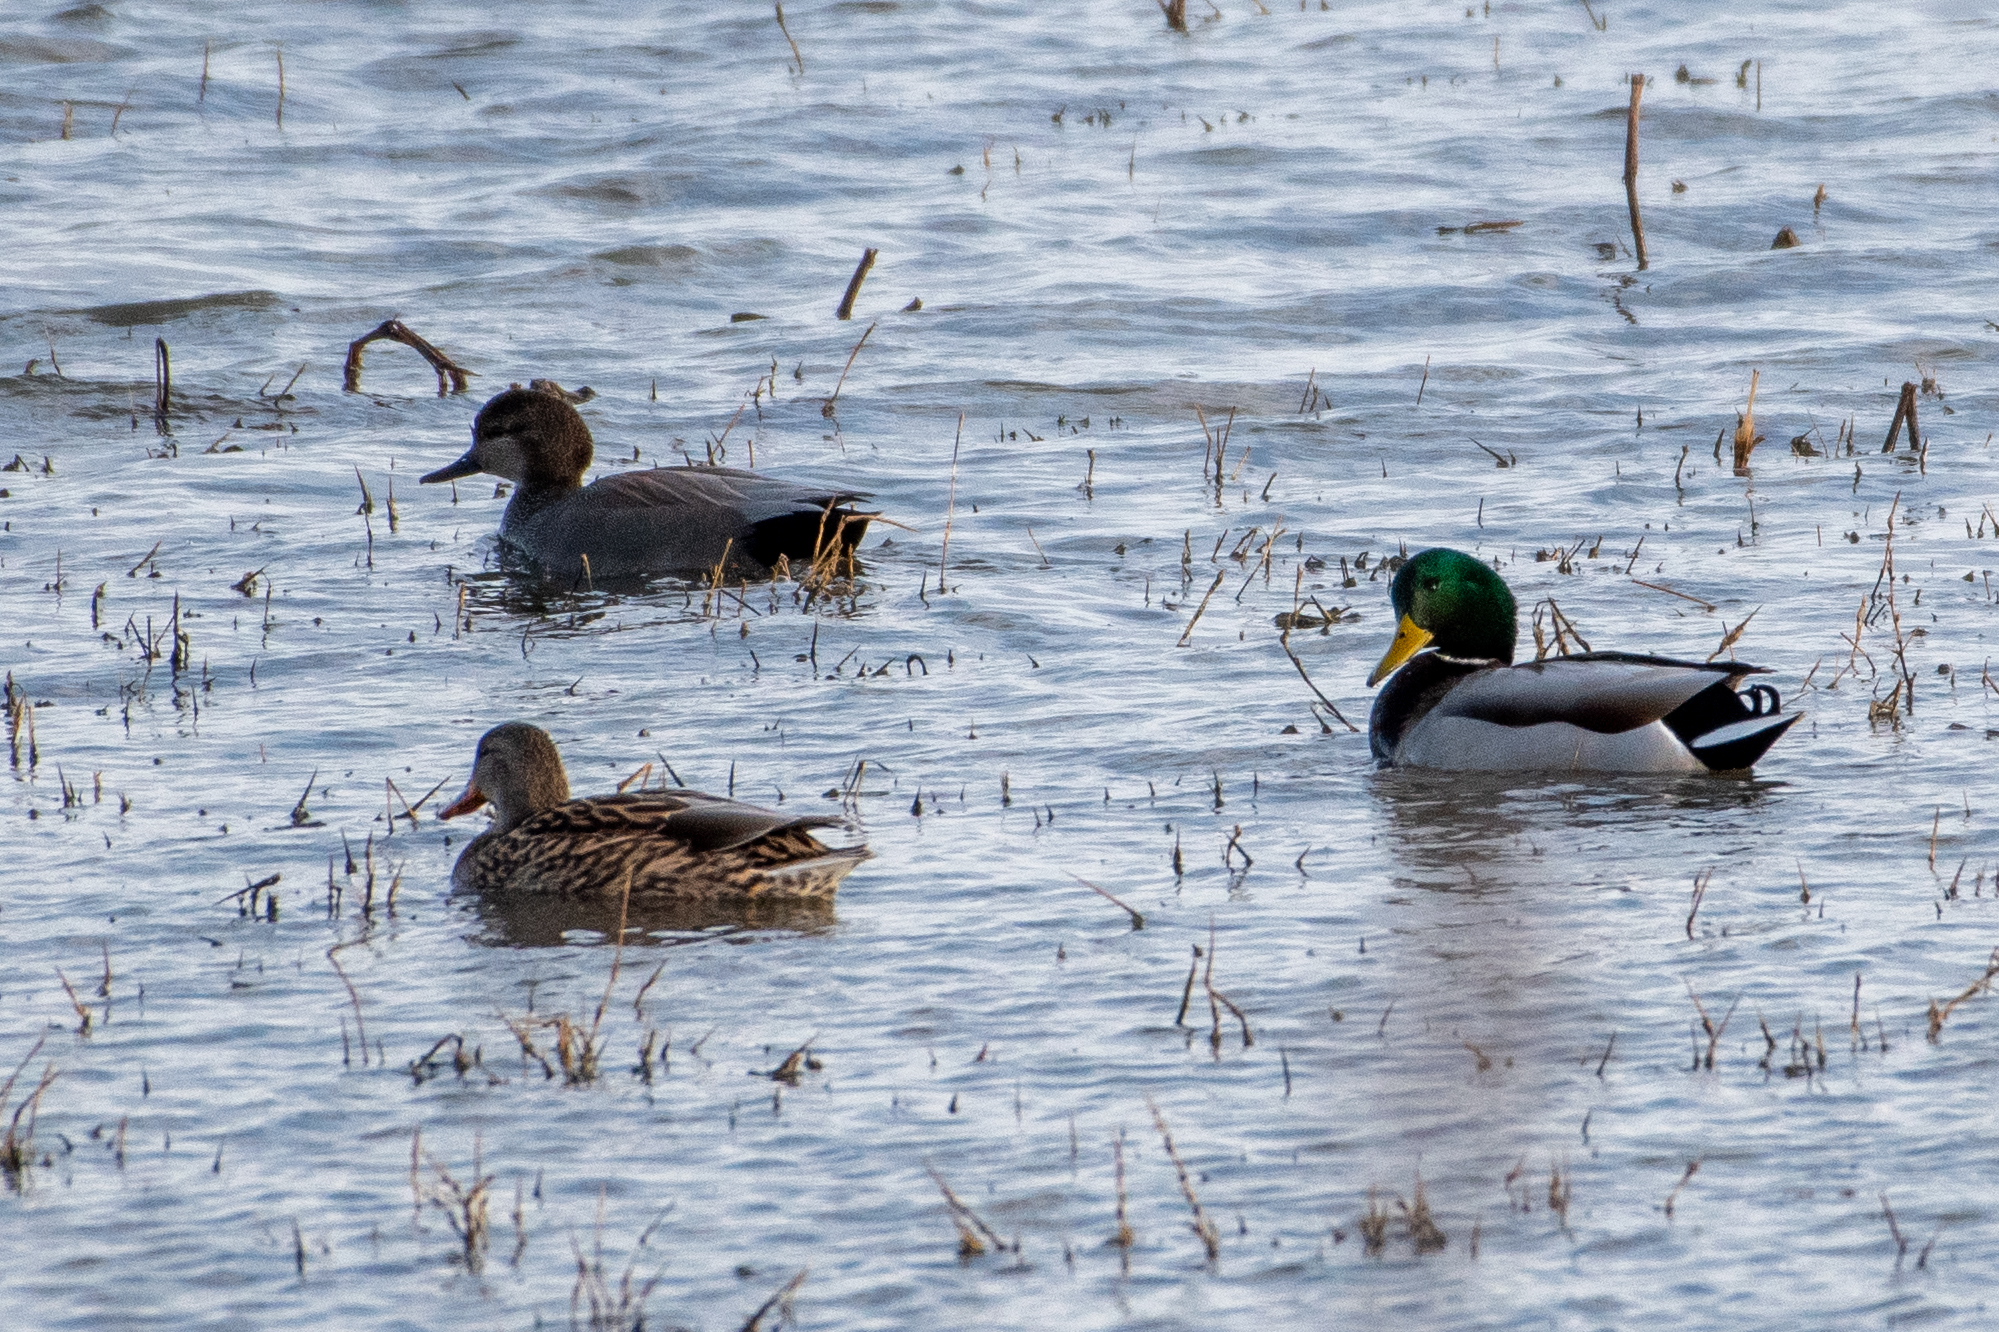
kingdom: Animalia
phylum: Chordata
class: Aves
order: Anseriformes
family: Anatidae
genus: Anas
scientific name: Anas platyrhynchos
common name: Mallard
